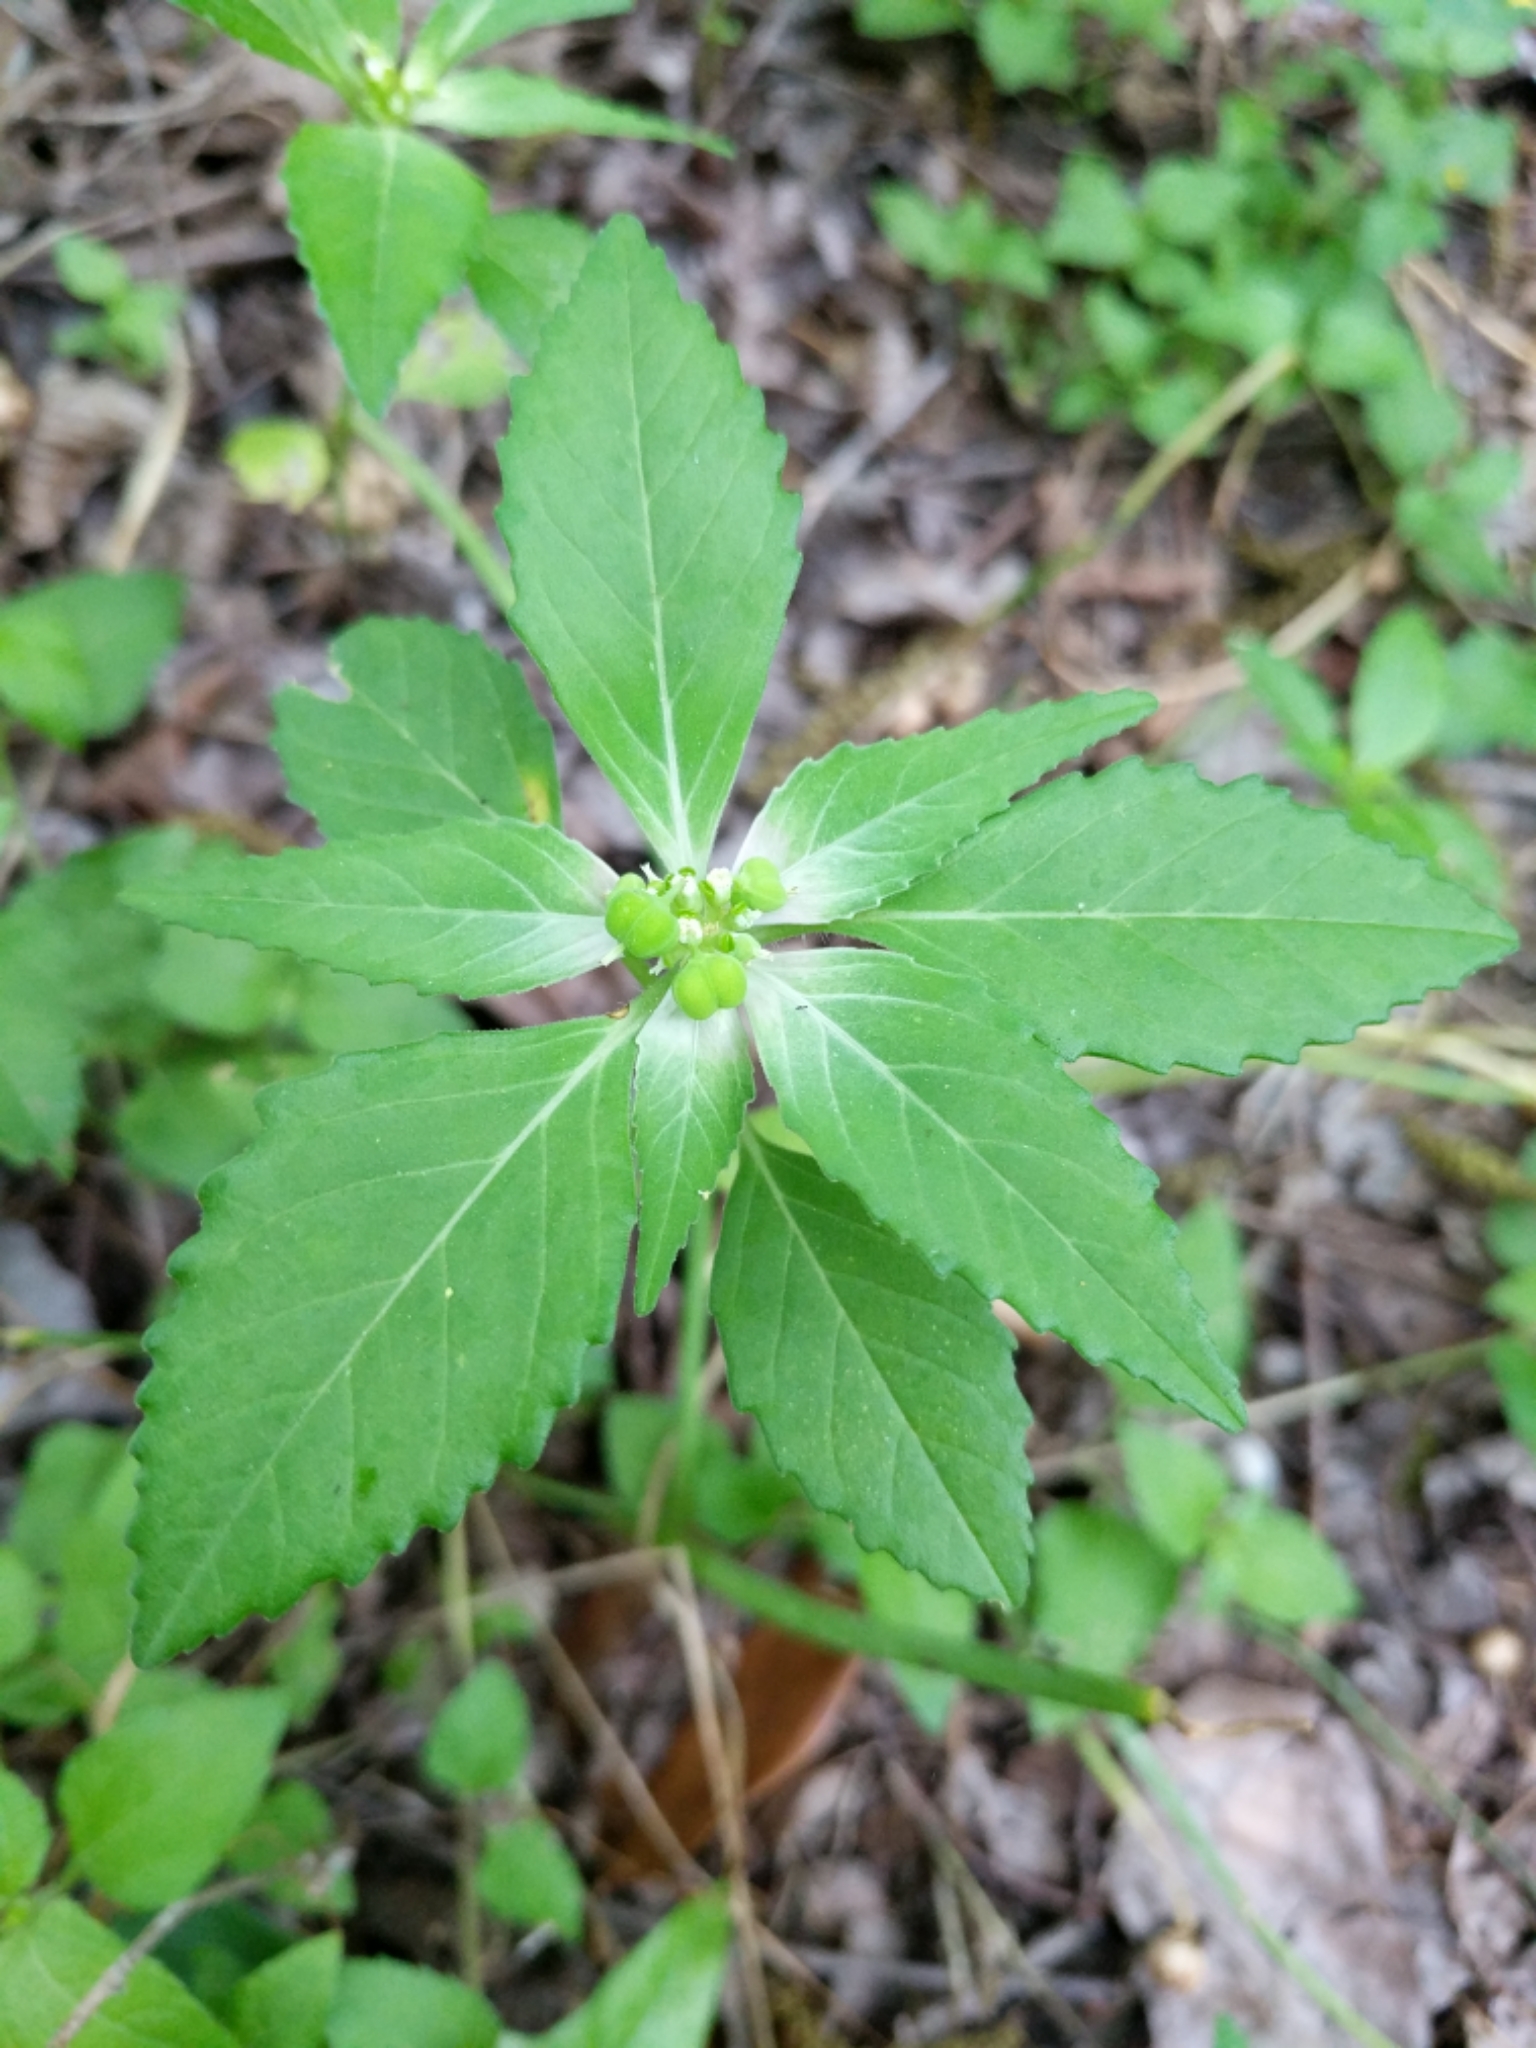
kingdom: Plantae
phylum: Tracheophyta
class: Magnoliopsida
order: Malpighiales
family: Euphorbiaceae
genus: Euphorbia
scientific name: Euphorbia dentata
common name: Dentate spurge
